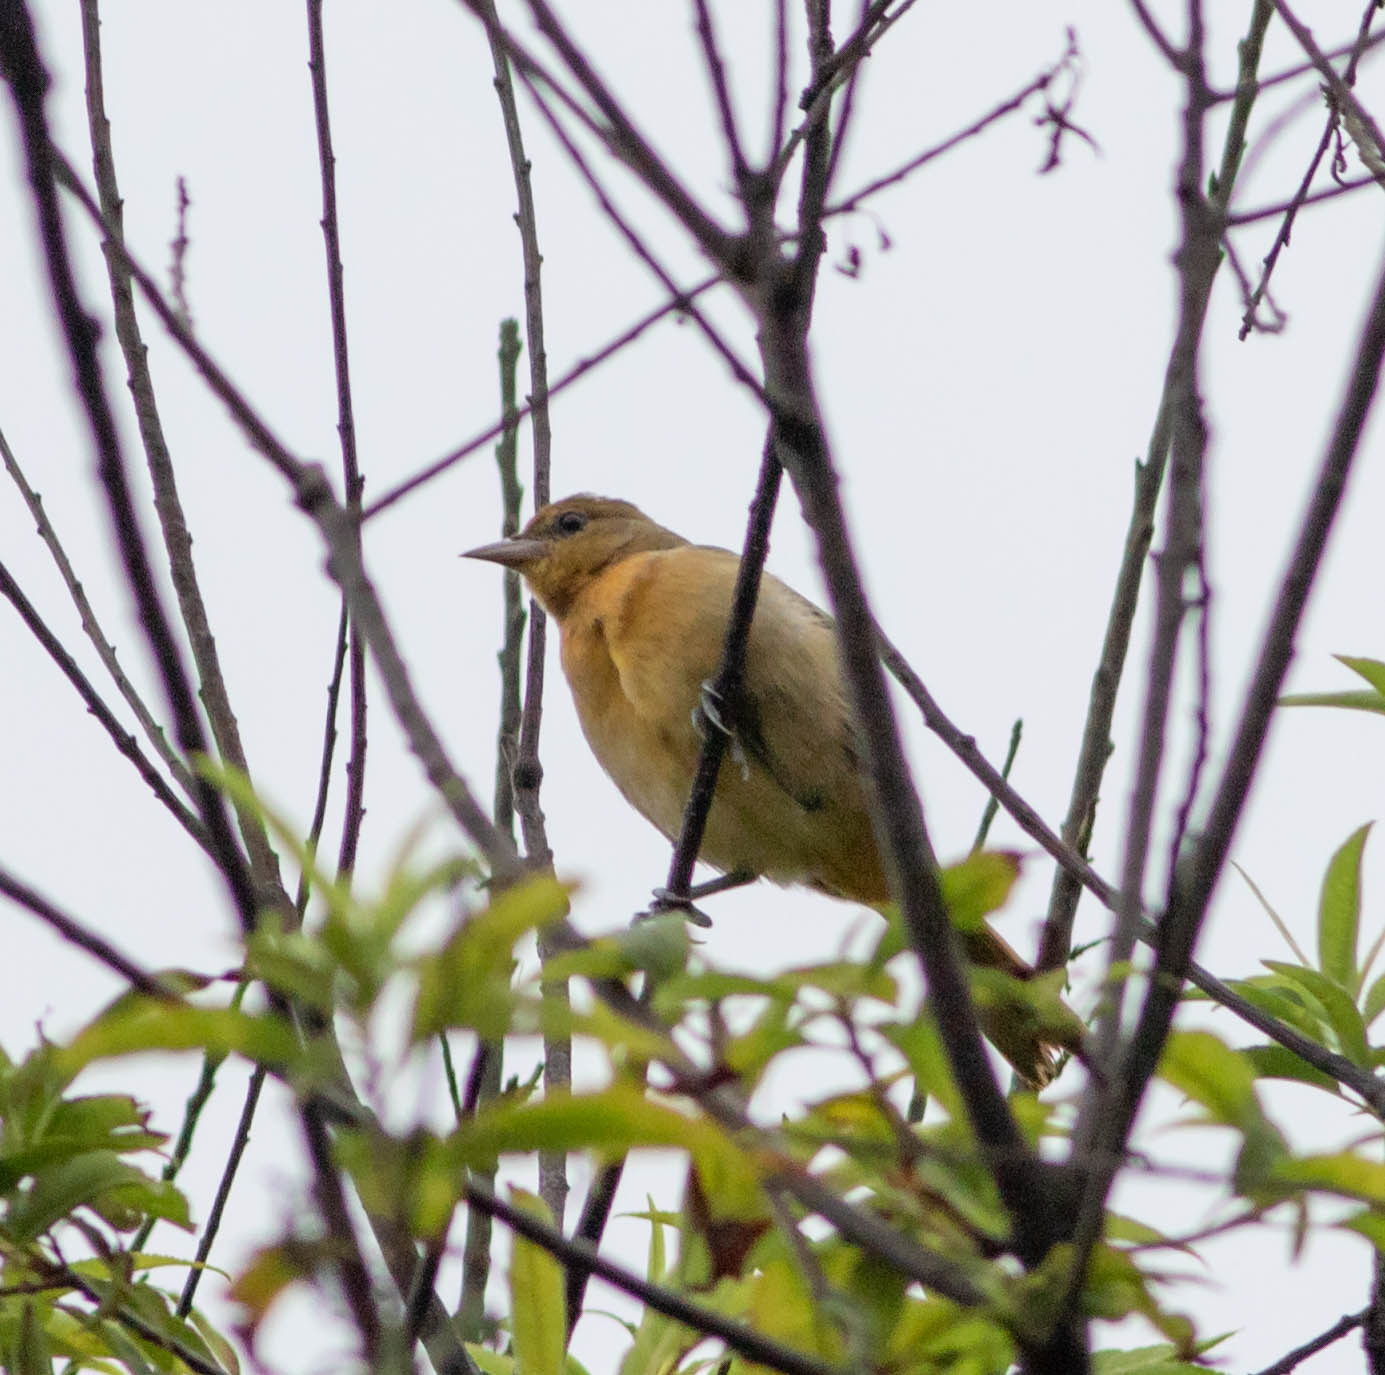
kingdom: Animalia
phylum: Chordata
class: Aves
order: Passeriformes
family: Icteridae
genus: Icterus
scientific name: Icterus galbula
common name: Baltimore oriole
